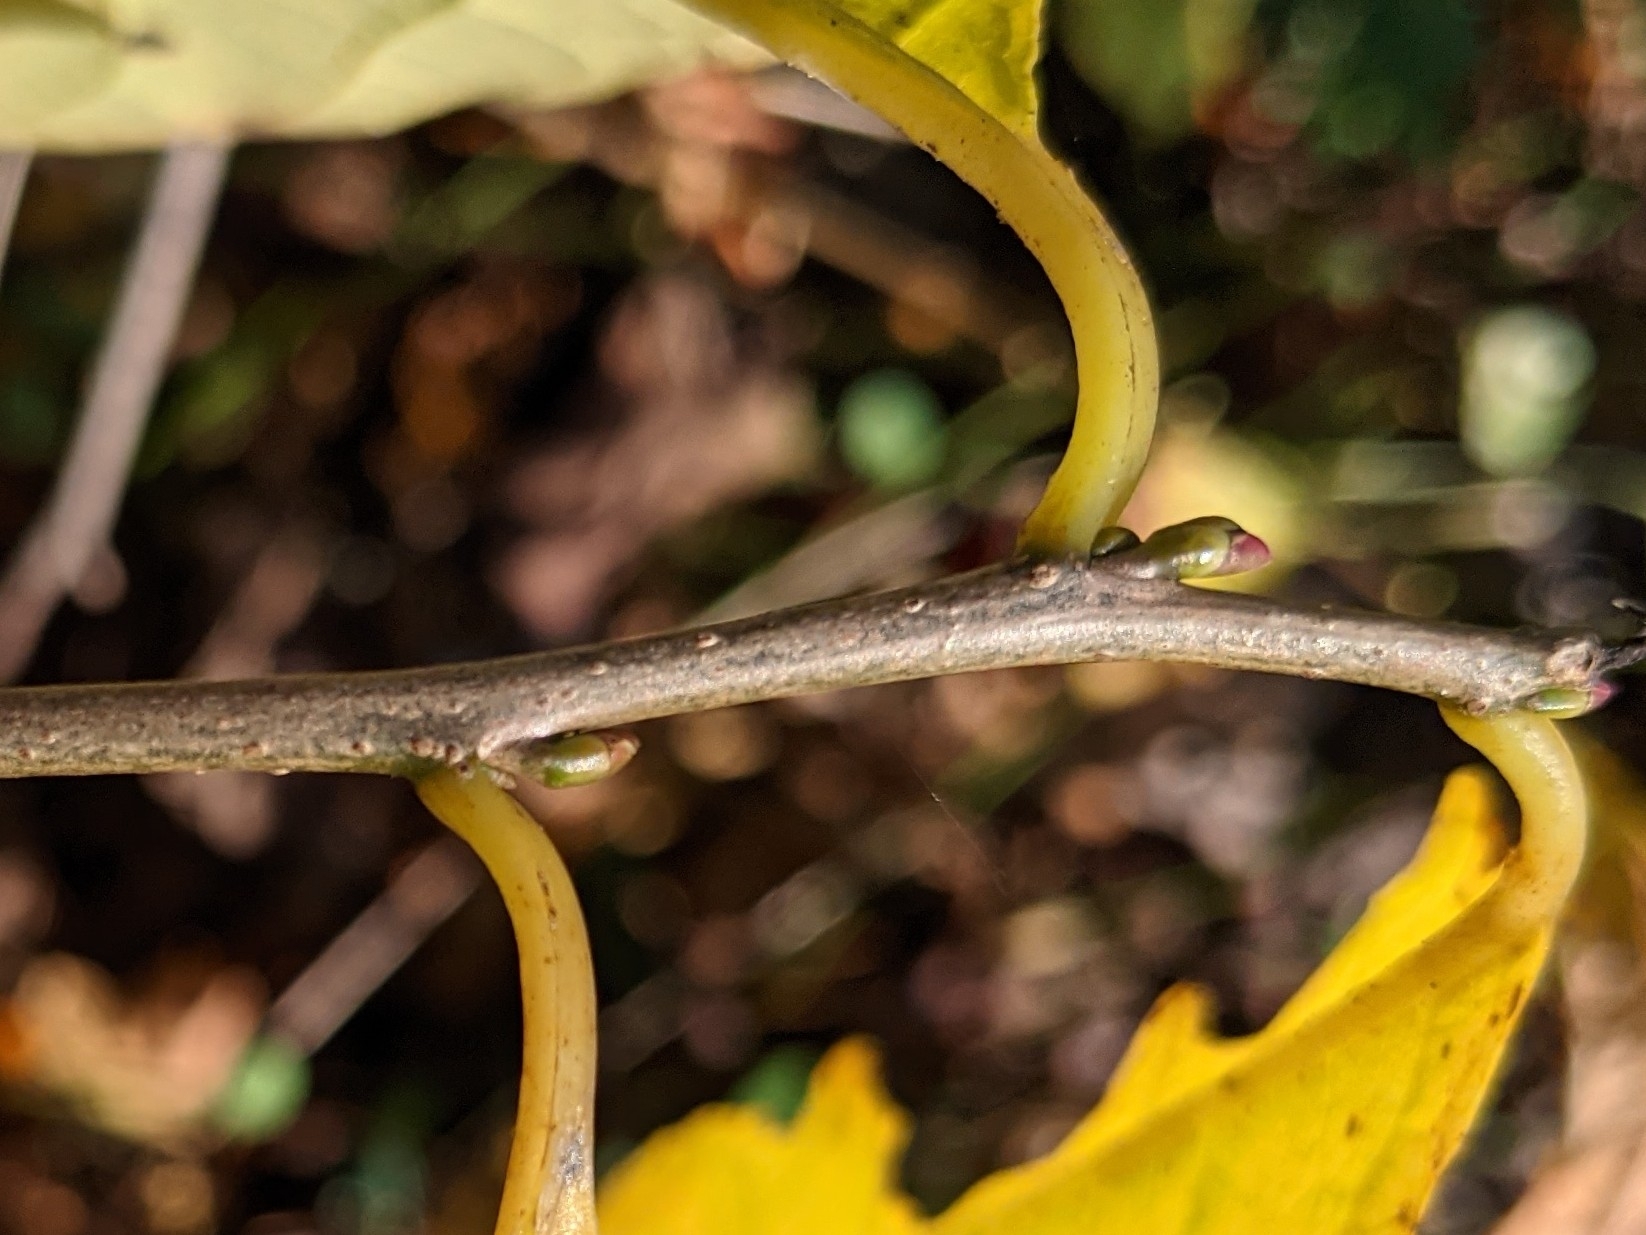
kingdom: Plantae
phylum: Tracheophyta
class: Magnoliopsida
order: Laurales
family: Lauraceae
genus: Lindera
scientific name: Lindera benzoin
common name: Spicebush
